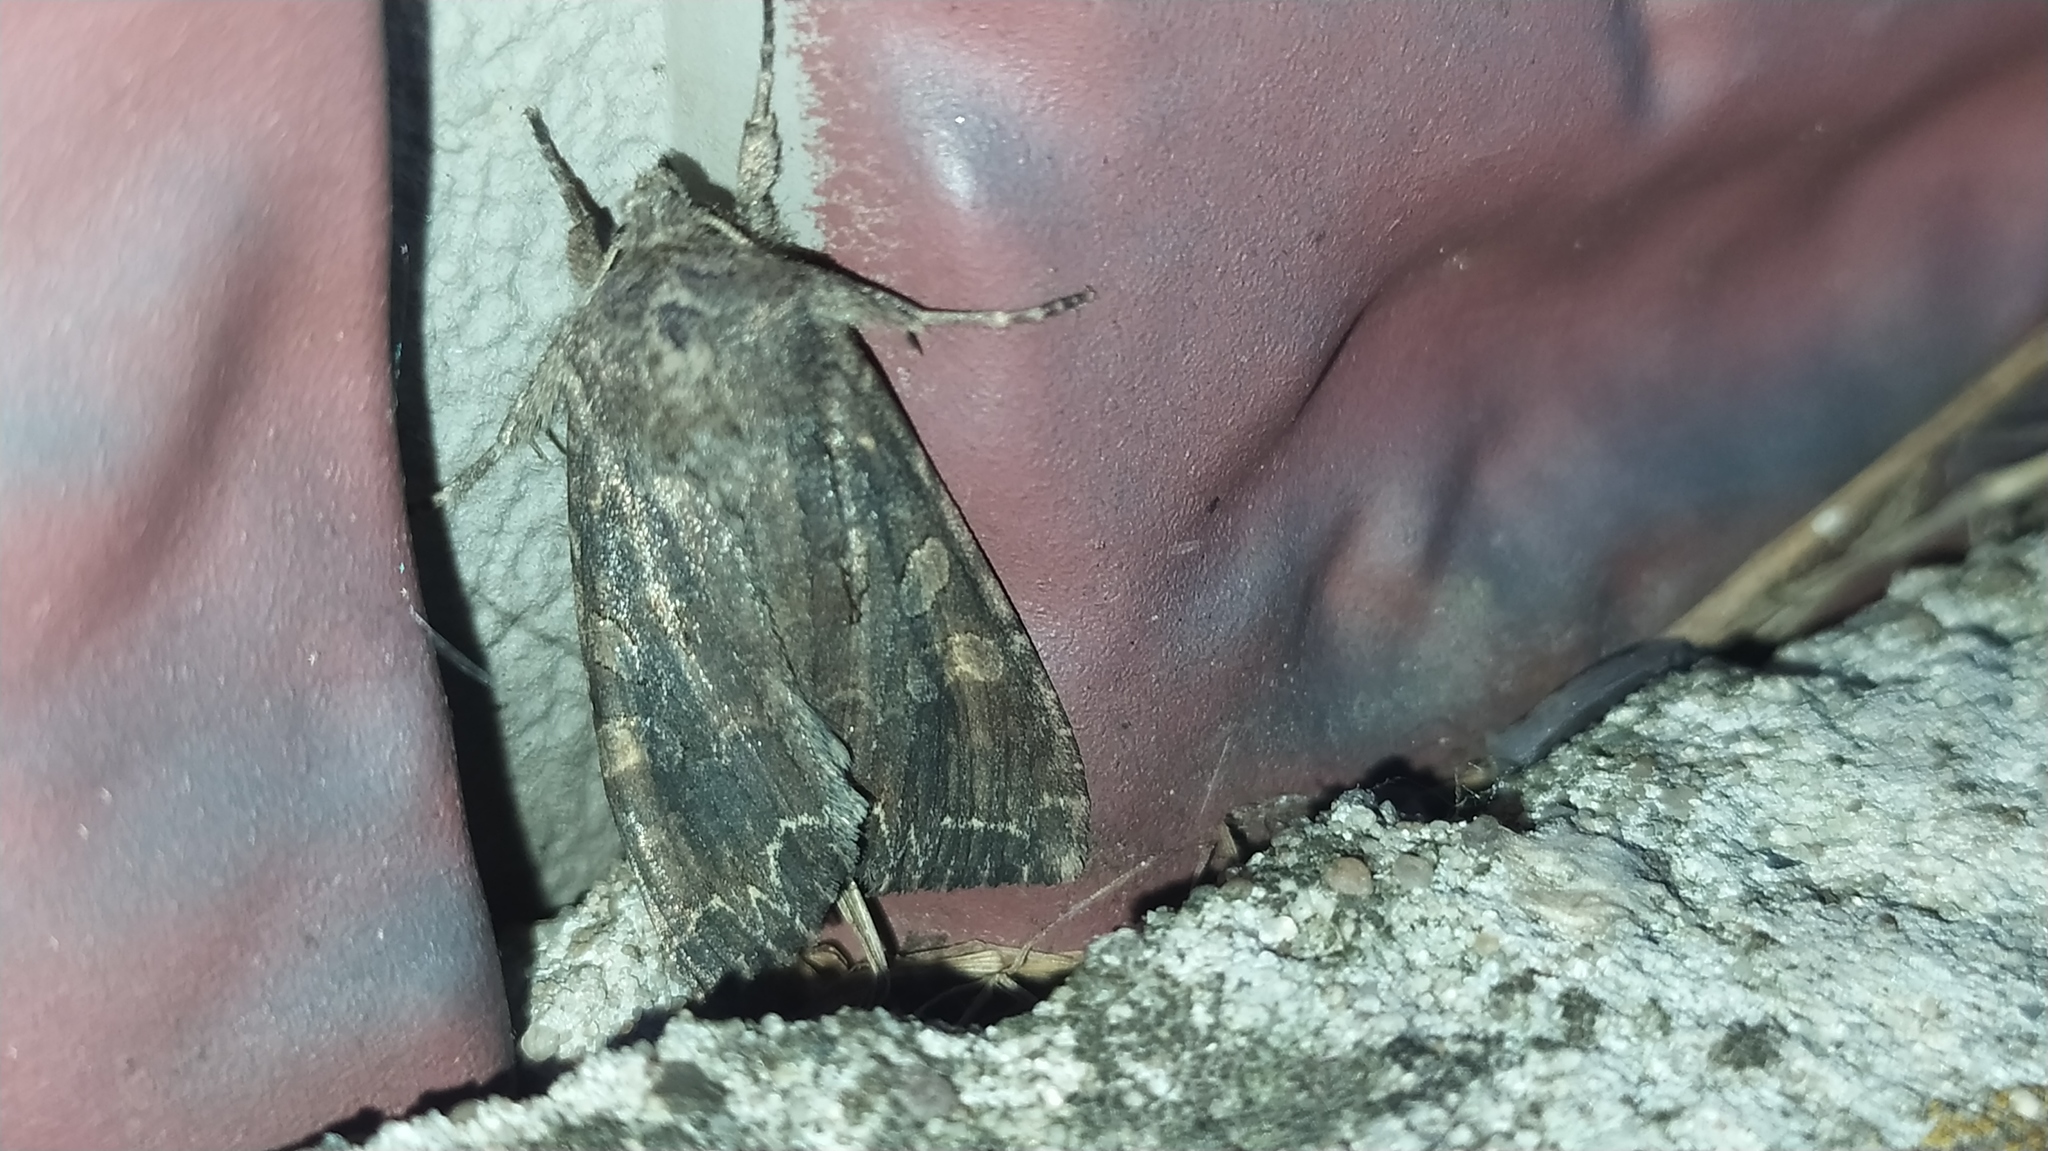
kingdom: Animalia
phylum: Arthropoda
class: Insecta
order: Lepidoptera
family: Noctuidae
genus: Lacanobia
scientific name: Lacanobia suasa
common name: Dog's tooth
